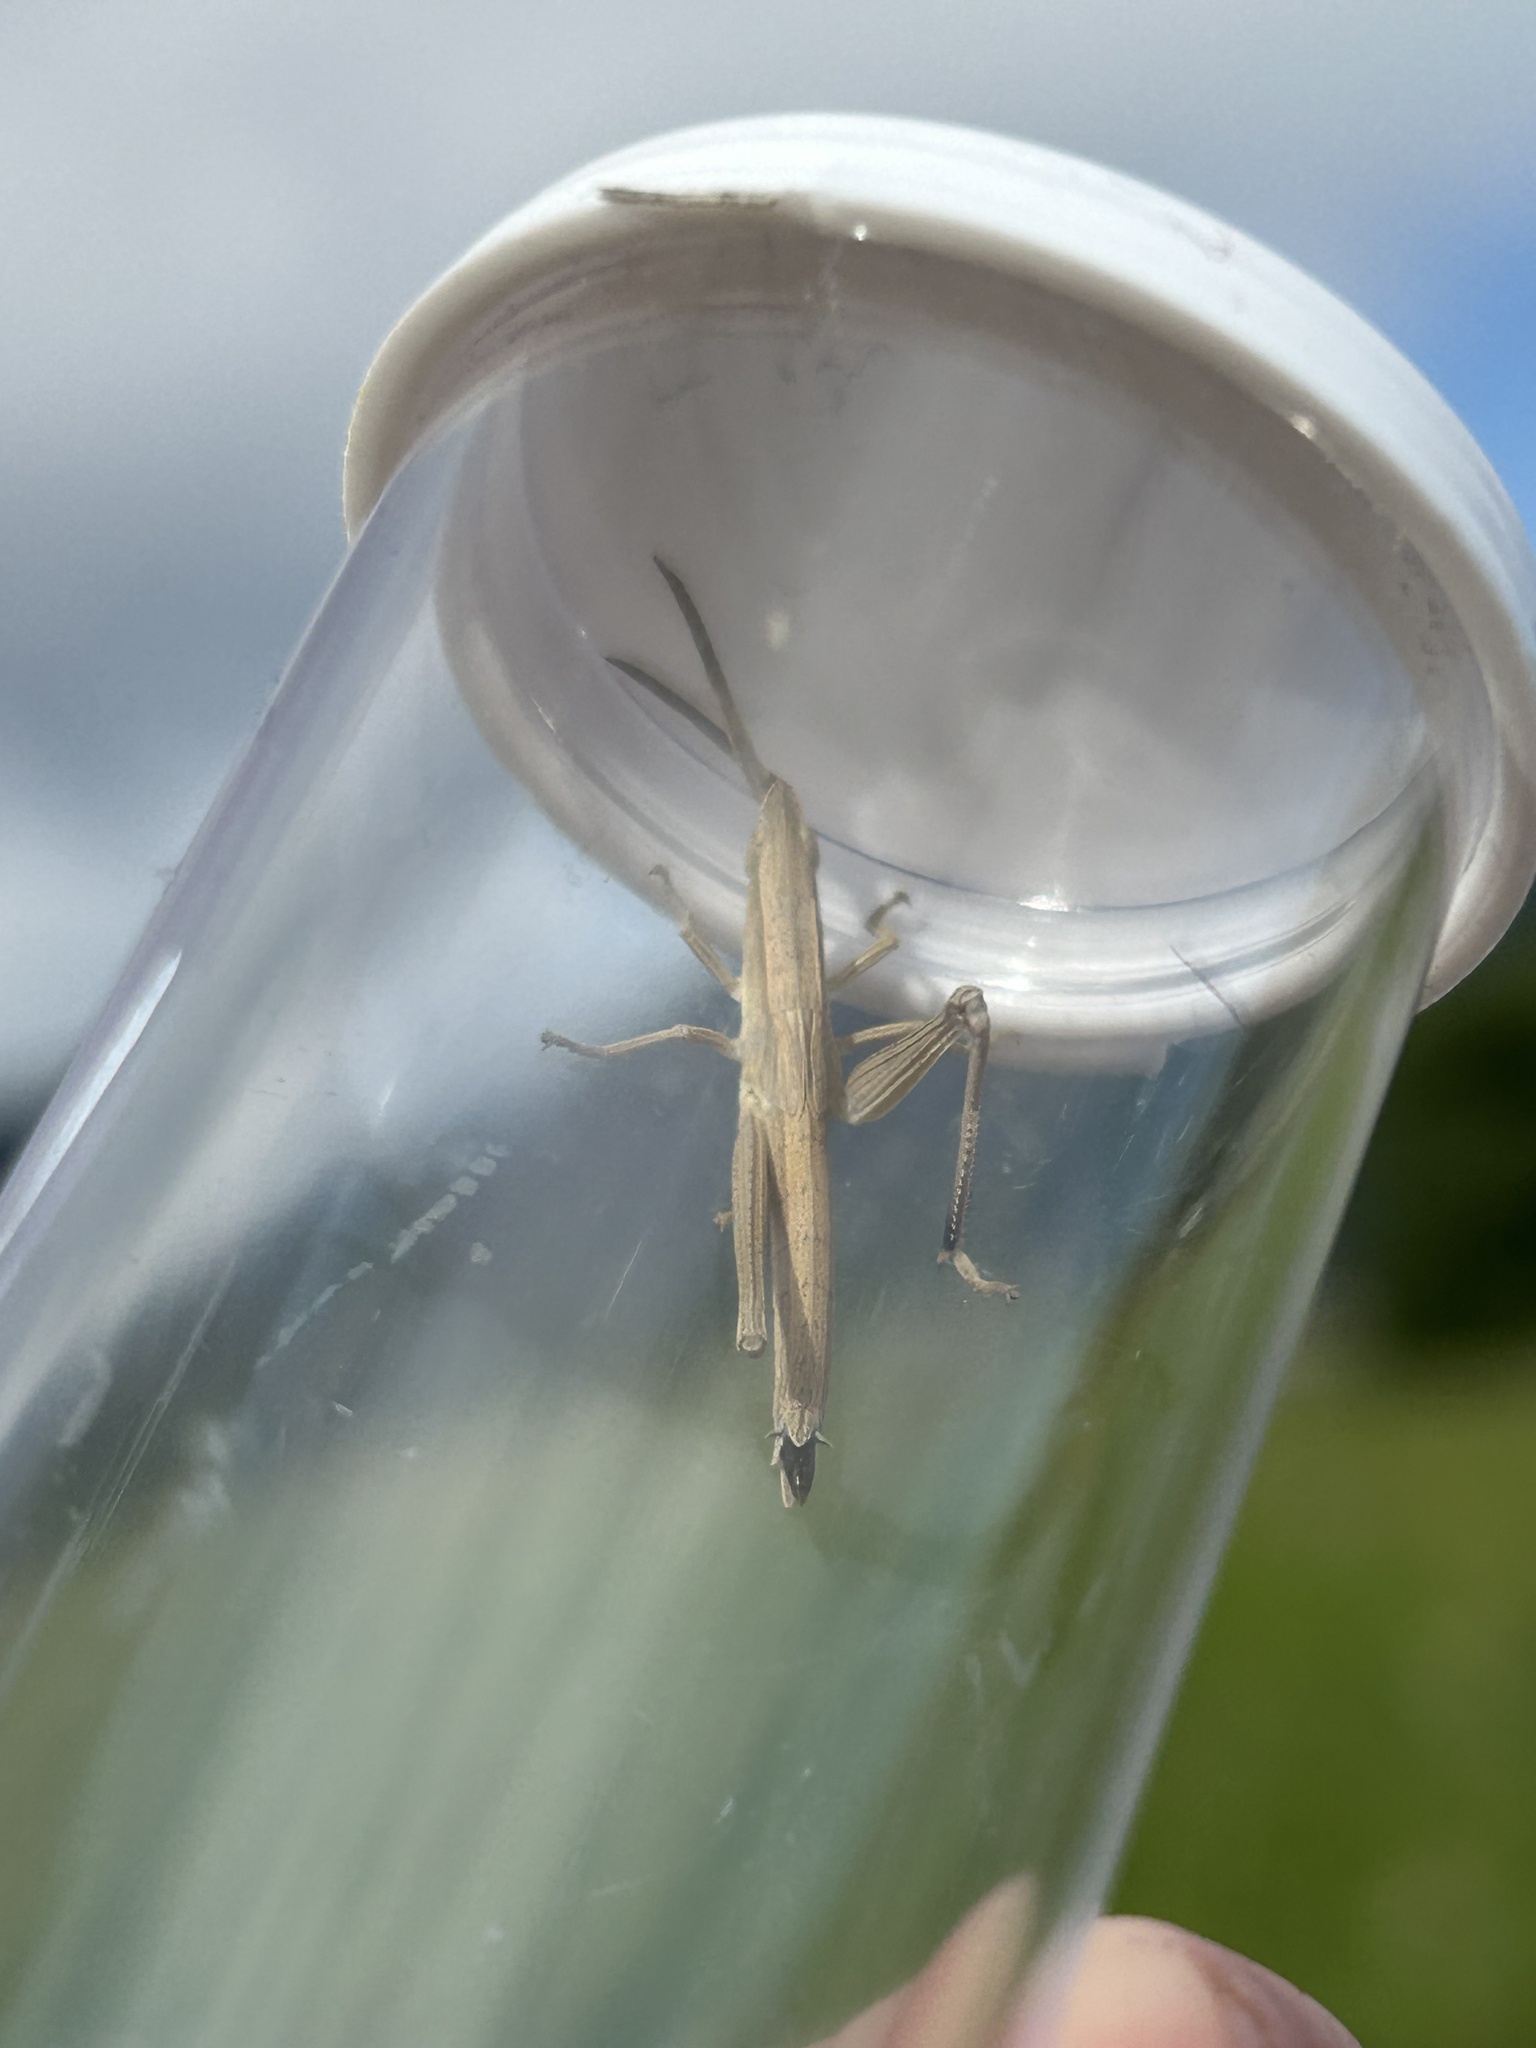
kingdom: Animalia
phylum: Arthropoda
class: Insecta
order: Orthoptera
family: Acrididae
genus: Pseudopomala
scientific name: Pseudopomala brachyptera
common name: Bunchgrass grasshopper
